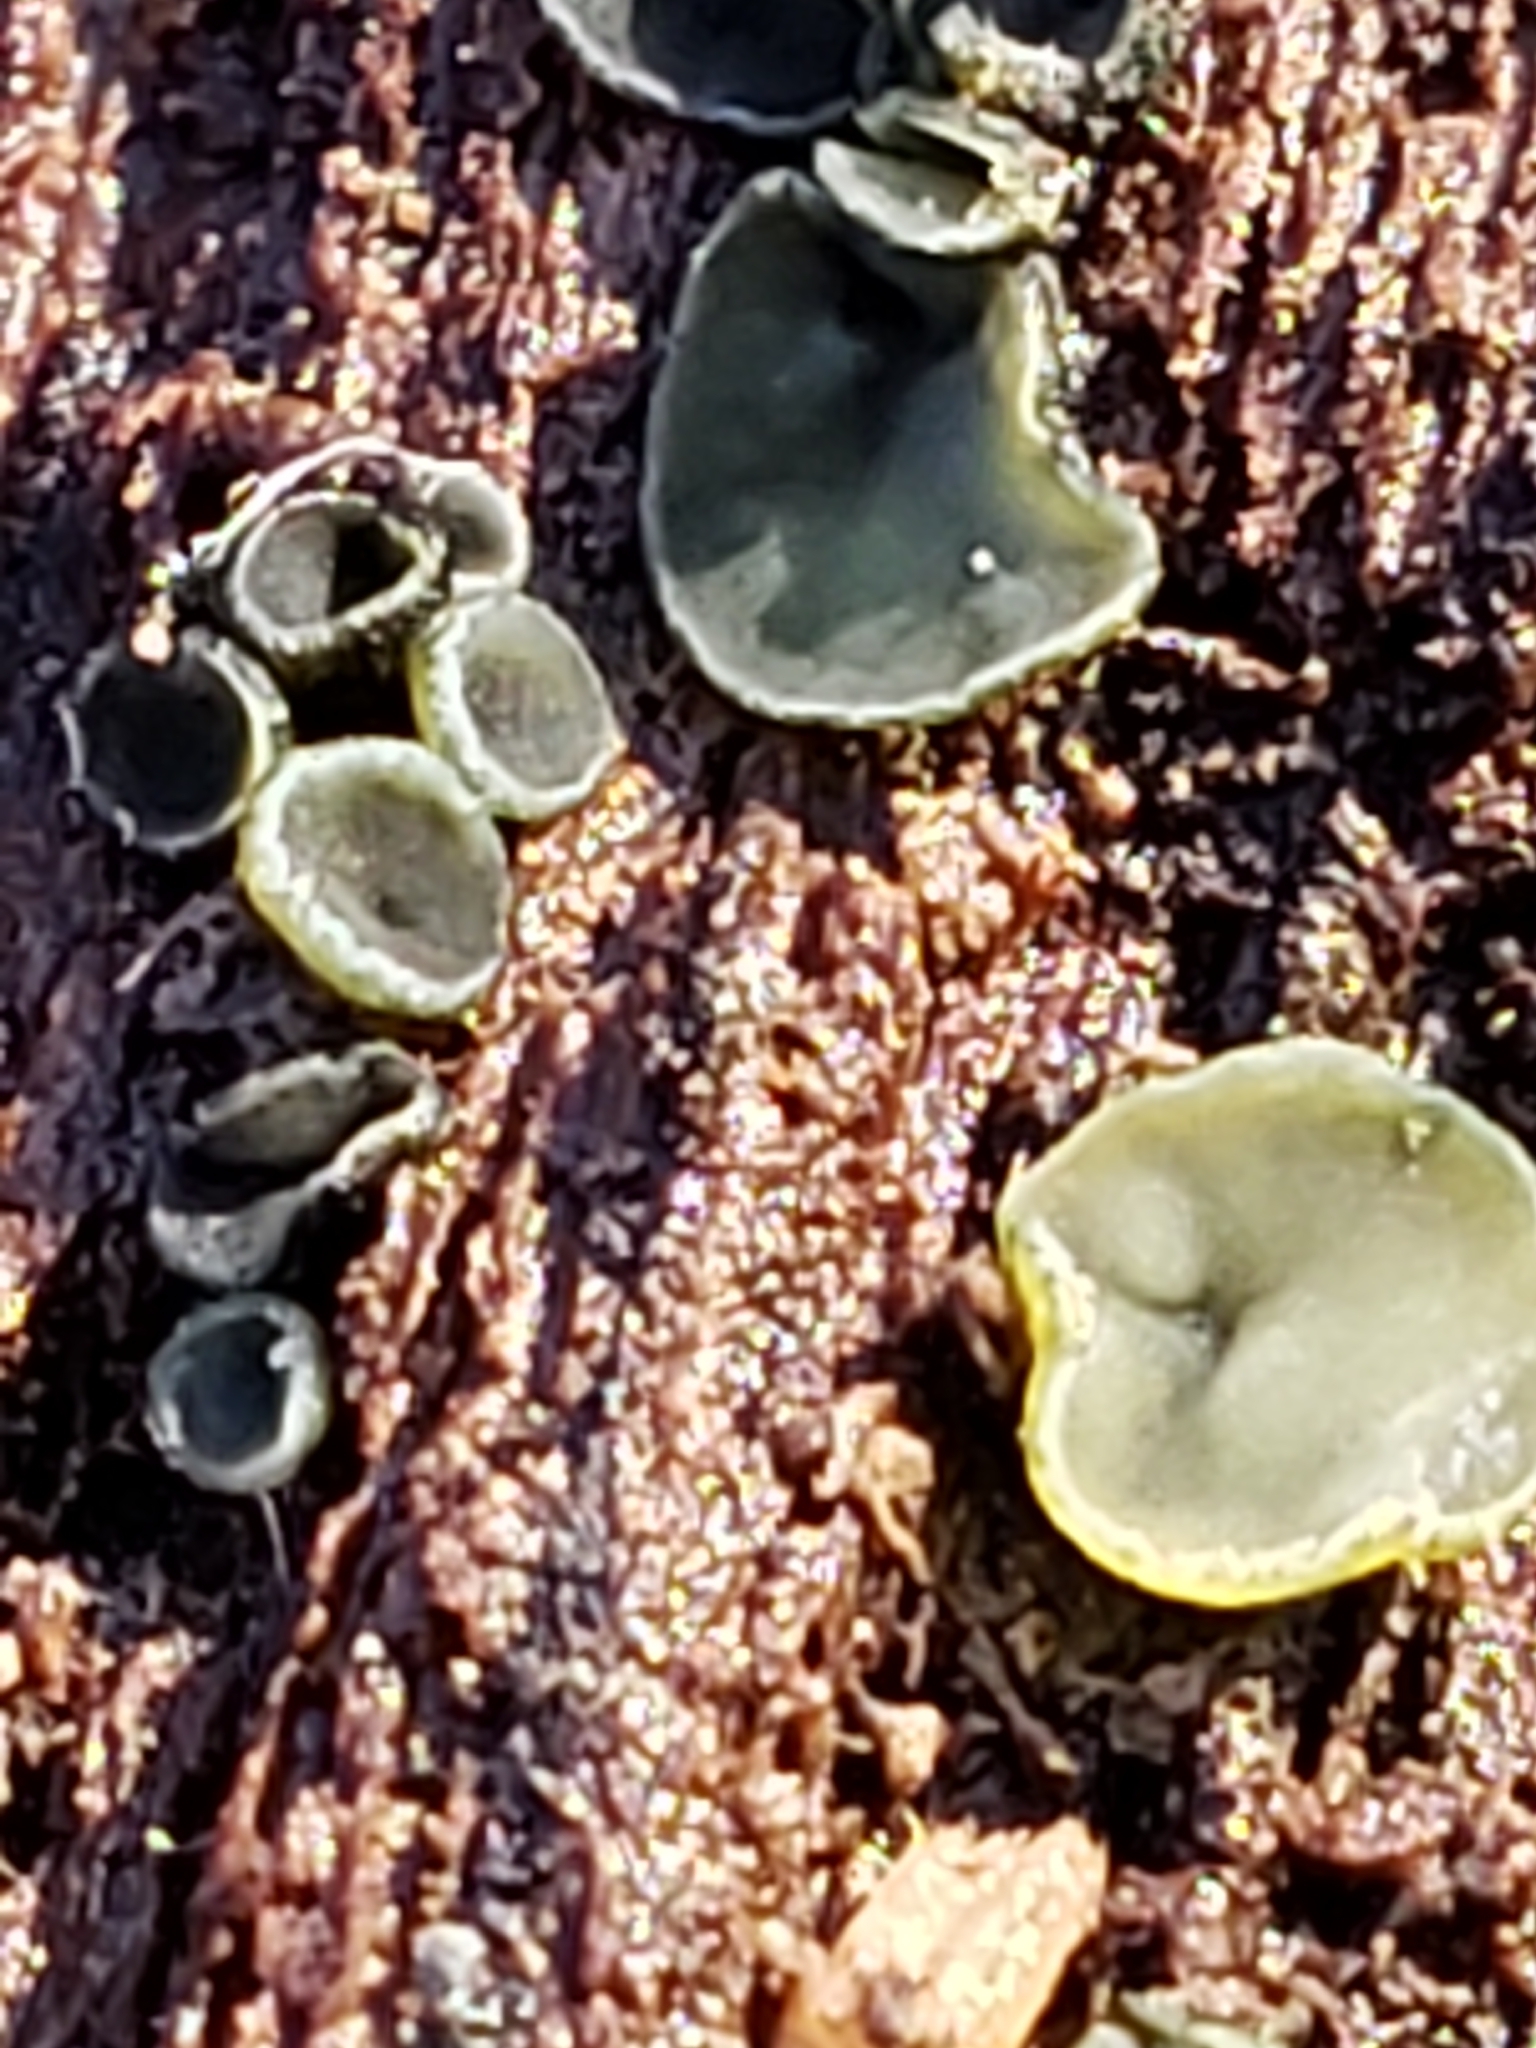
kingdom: Fungi
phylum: Ascomycota
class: Leotiomycetes
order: Helotiales
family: Chlorospleniaceae
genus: Chlorosplenium
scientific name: Chlorosplenium chlora
